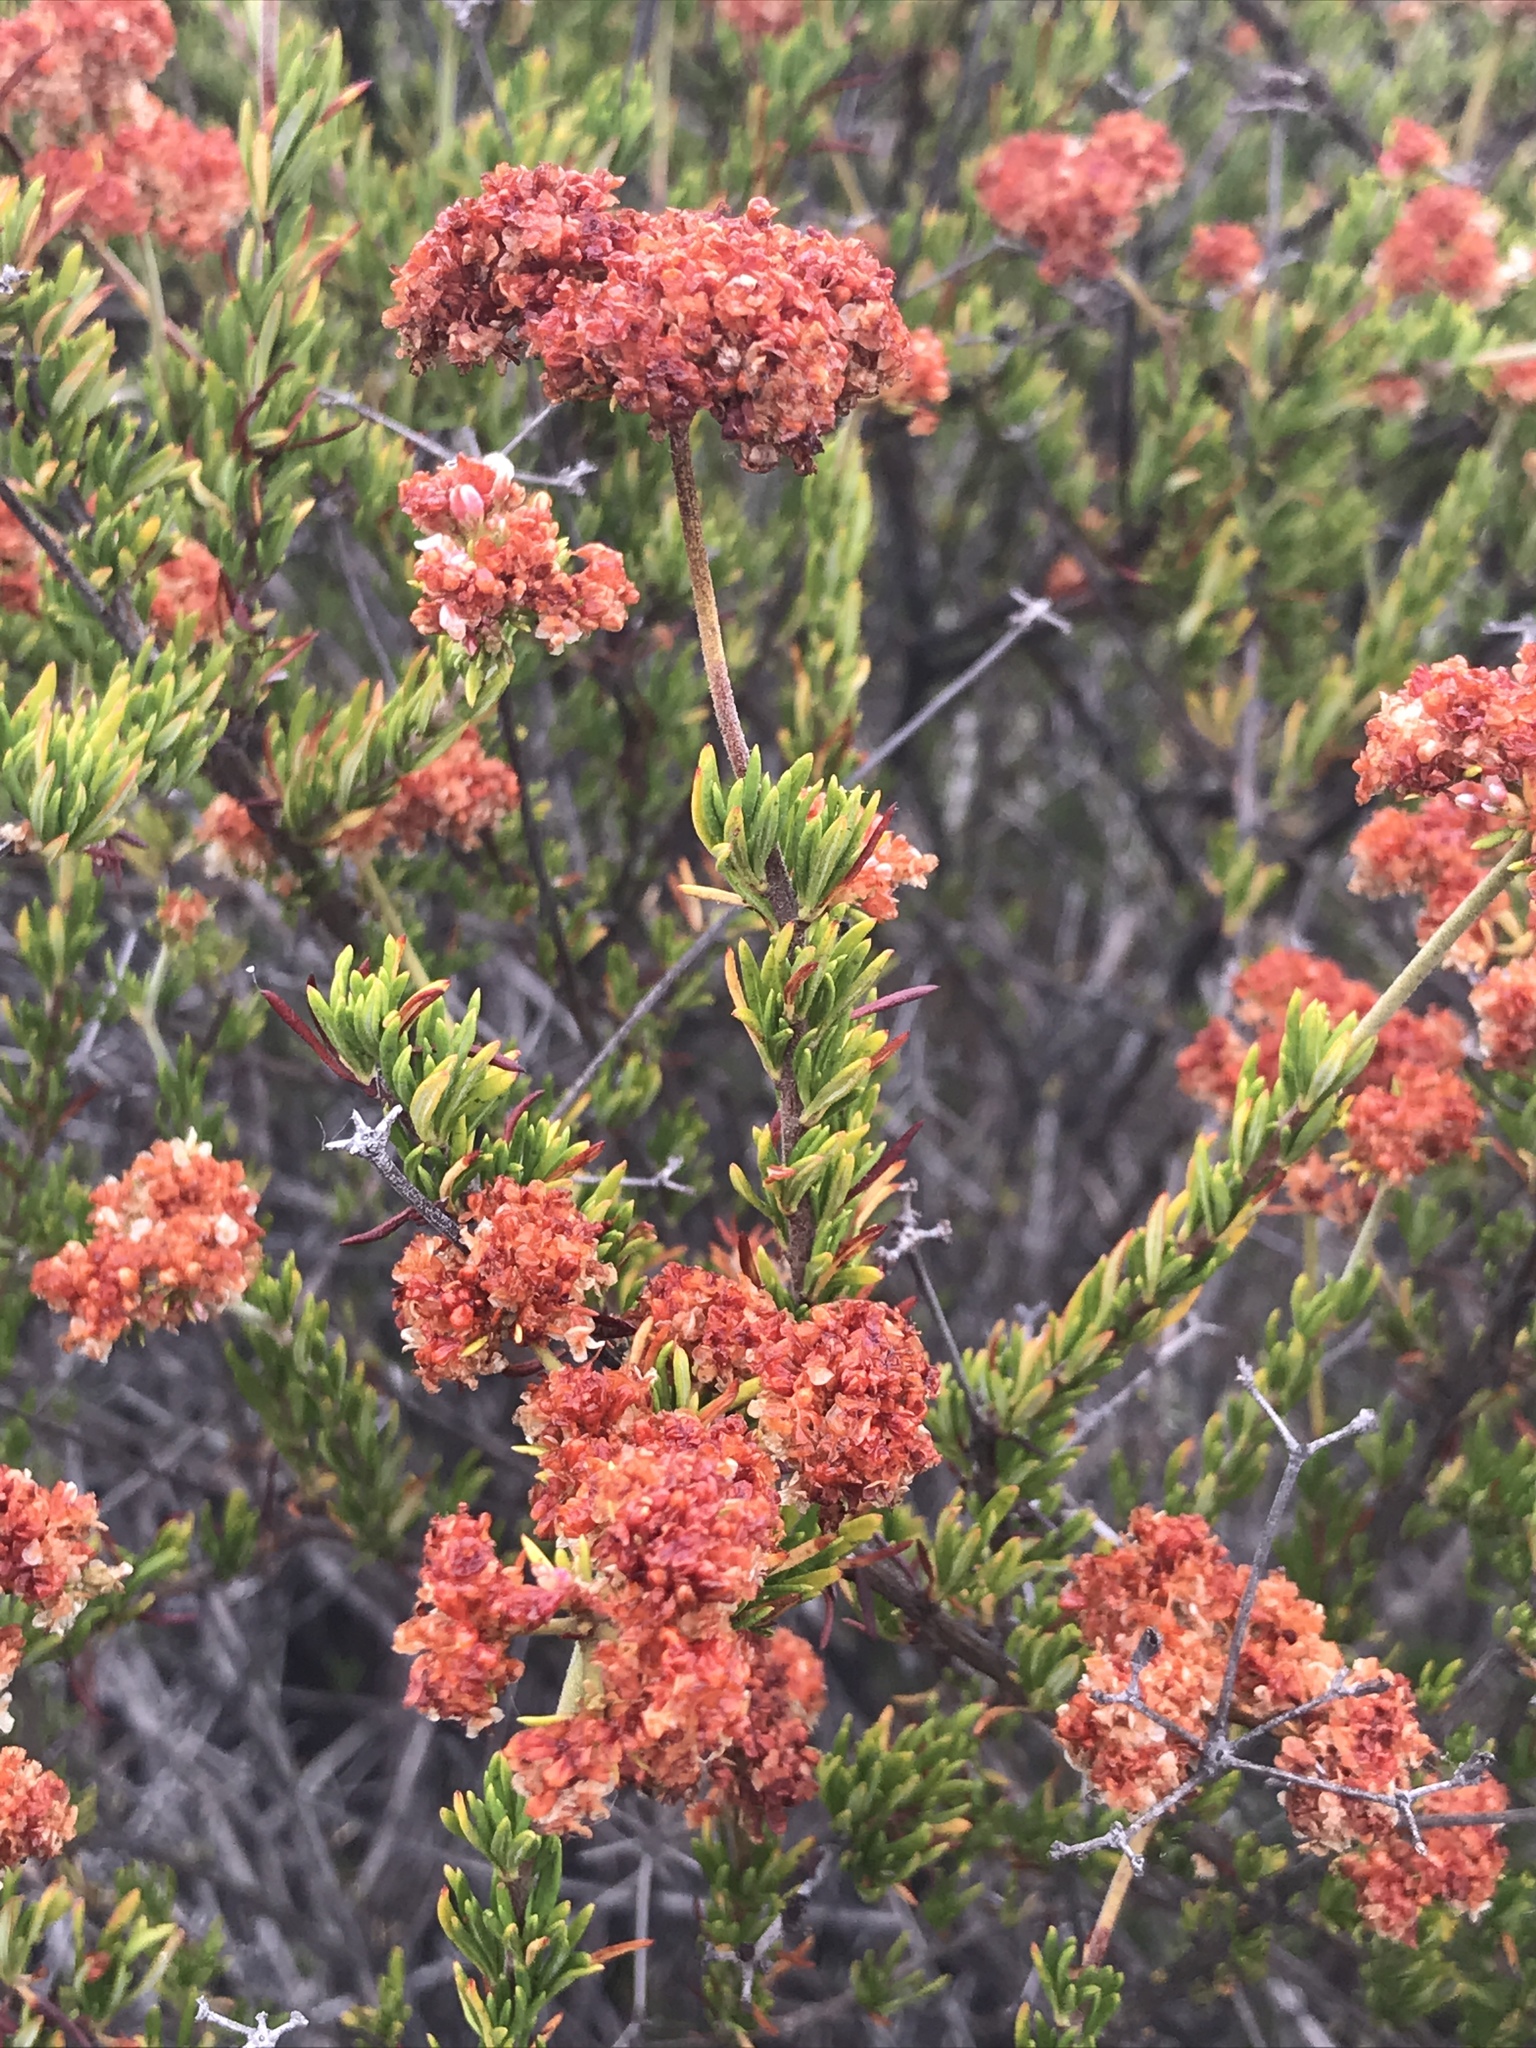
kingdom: Plantae
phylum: Tracheophyta
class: Magnoliopsida
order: Caryophyllales
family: Polygonaceae
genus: Eriogonum
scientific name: Eriogonum fasciculatum
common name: California wild buckwheat
